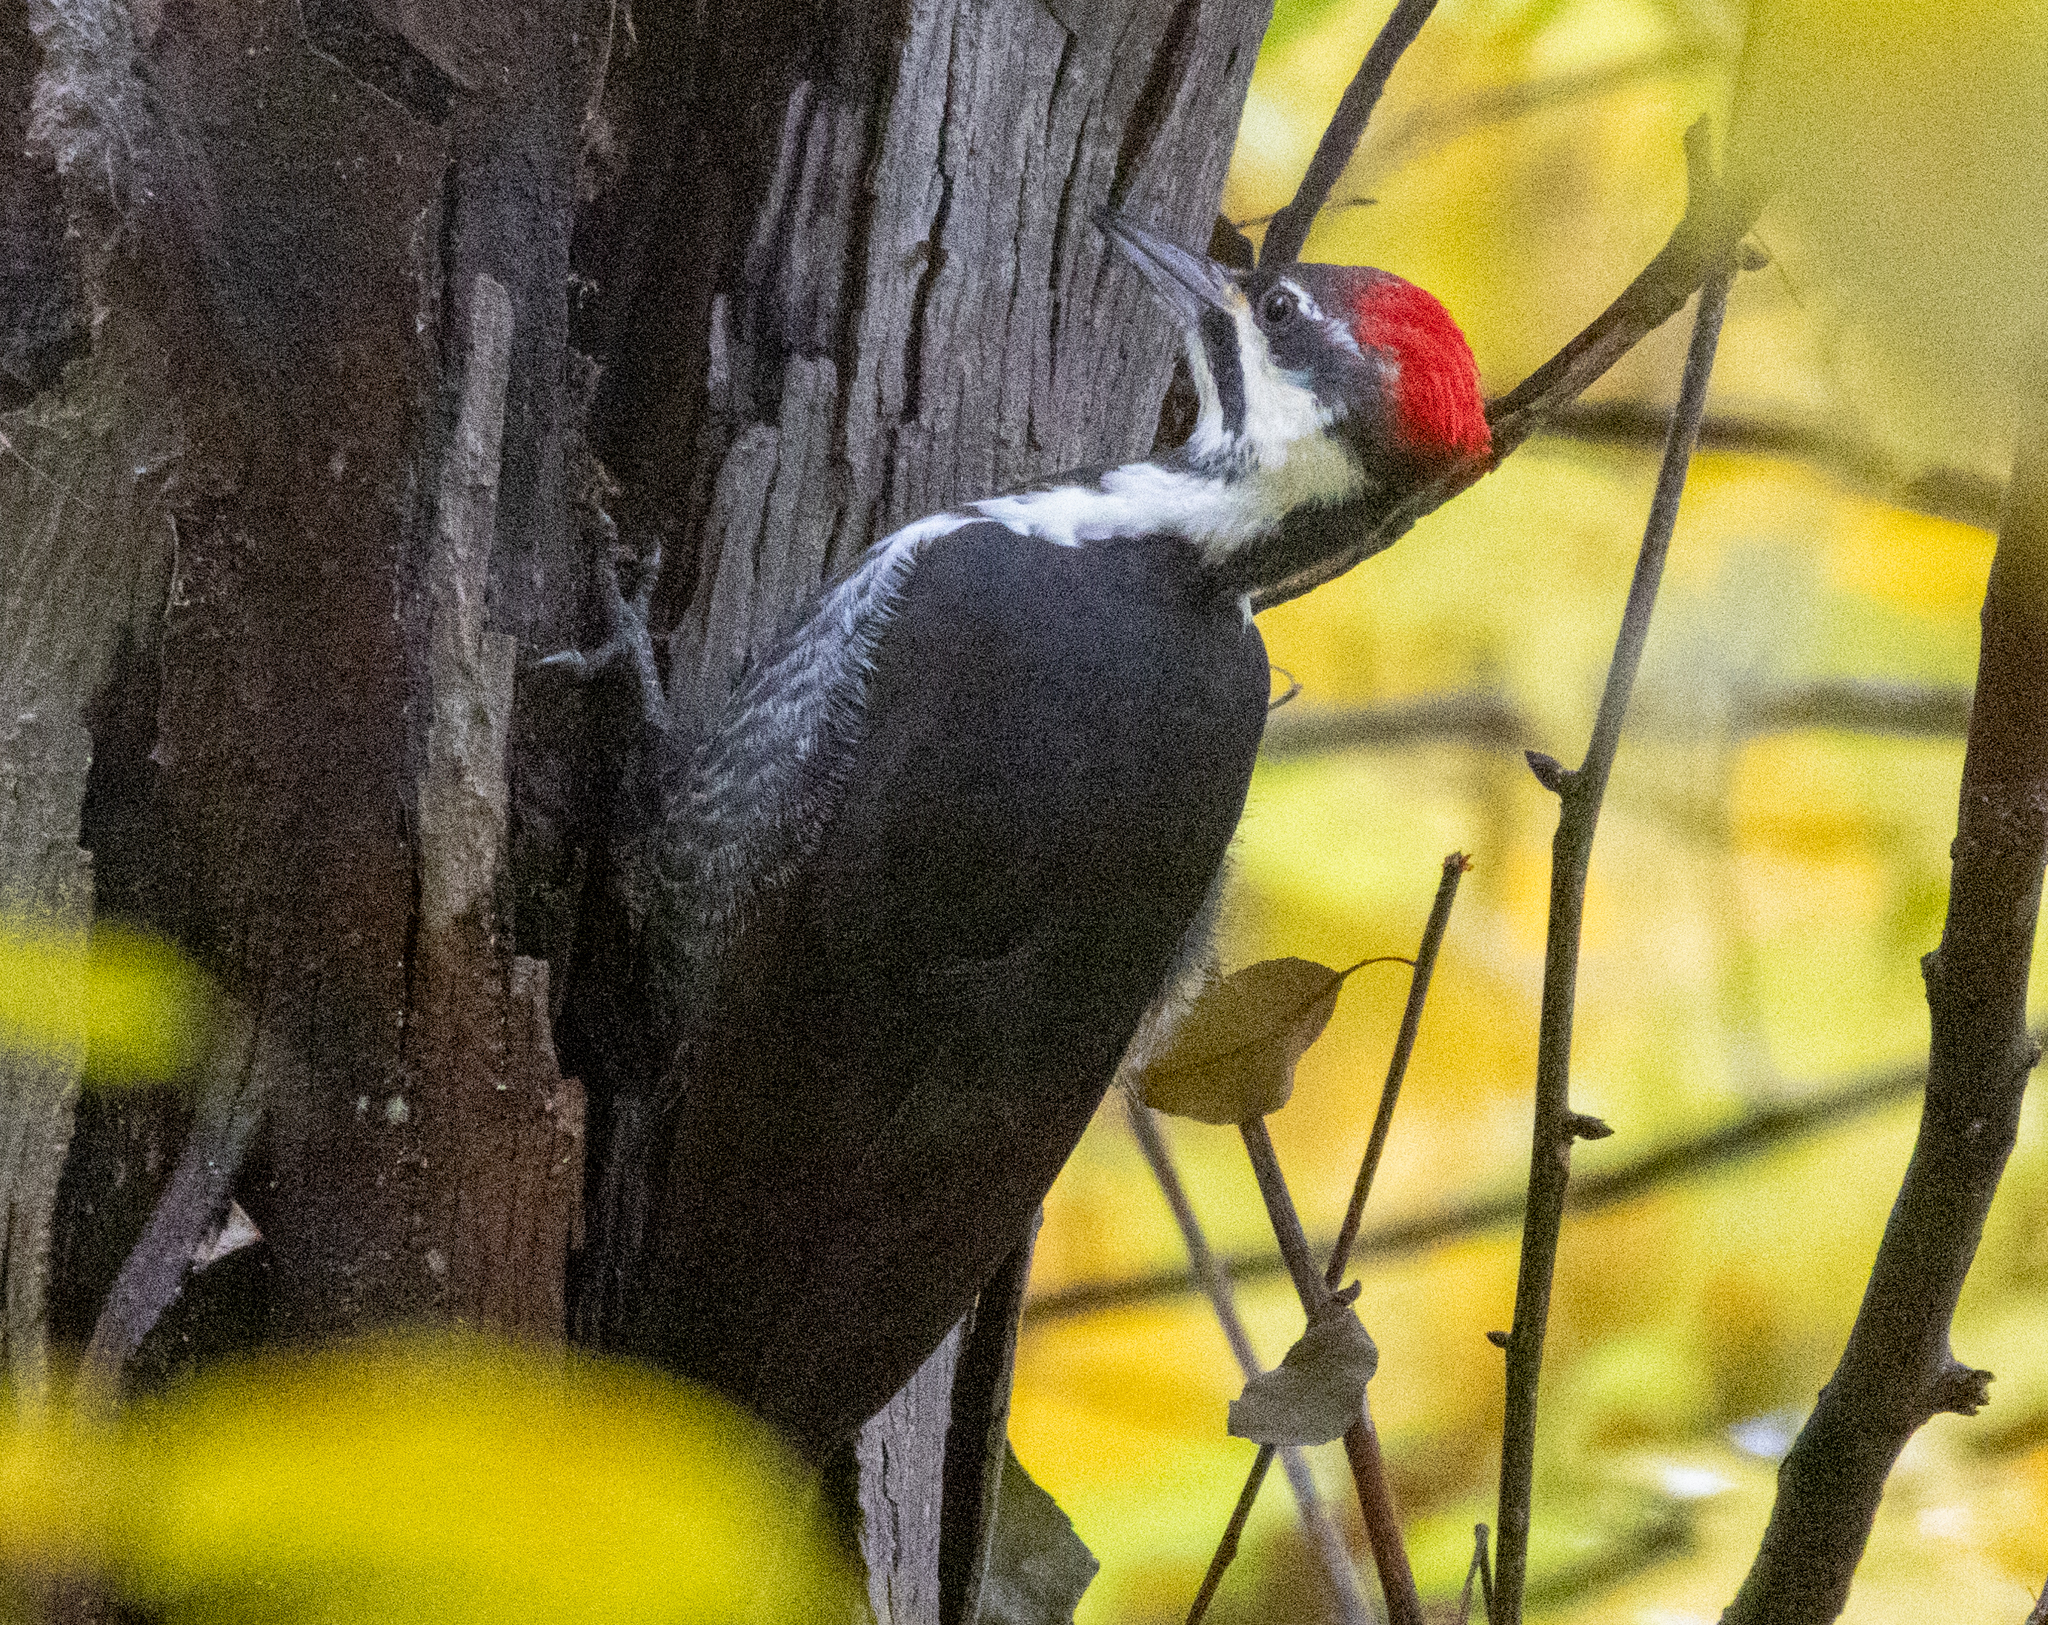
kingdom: Animalia
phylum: Chordata
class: Aves
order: Piciformes
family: Picidae
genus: Dryocopus
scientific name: Dryocopus pileatus
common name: Pileated woodpecker
